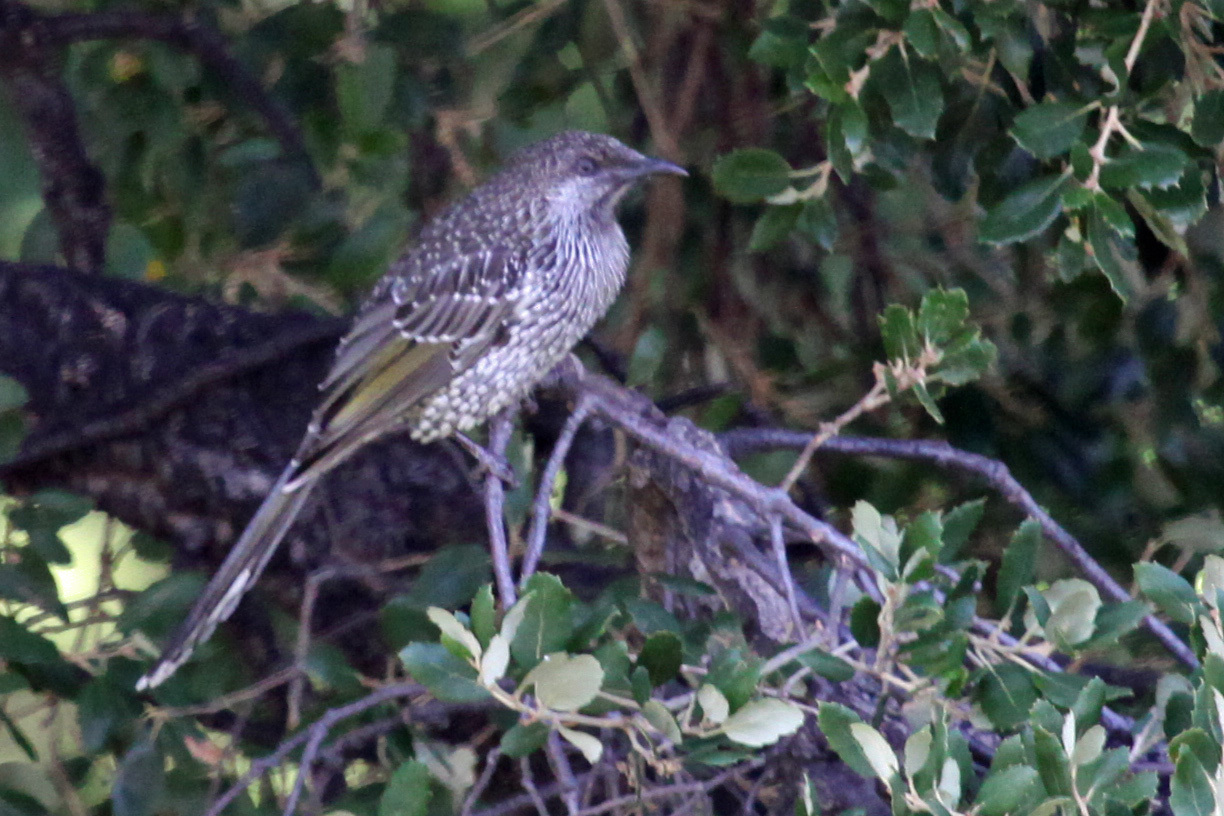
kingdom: Animalia
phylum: Chordata
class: Aves
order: Passeriformes
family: Meliphagidae
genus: Anthochaera
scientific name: Anthochaera chrysoptera
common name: Little wattlebird
